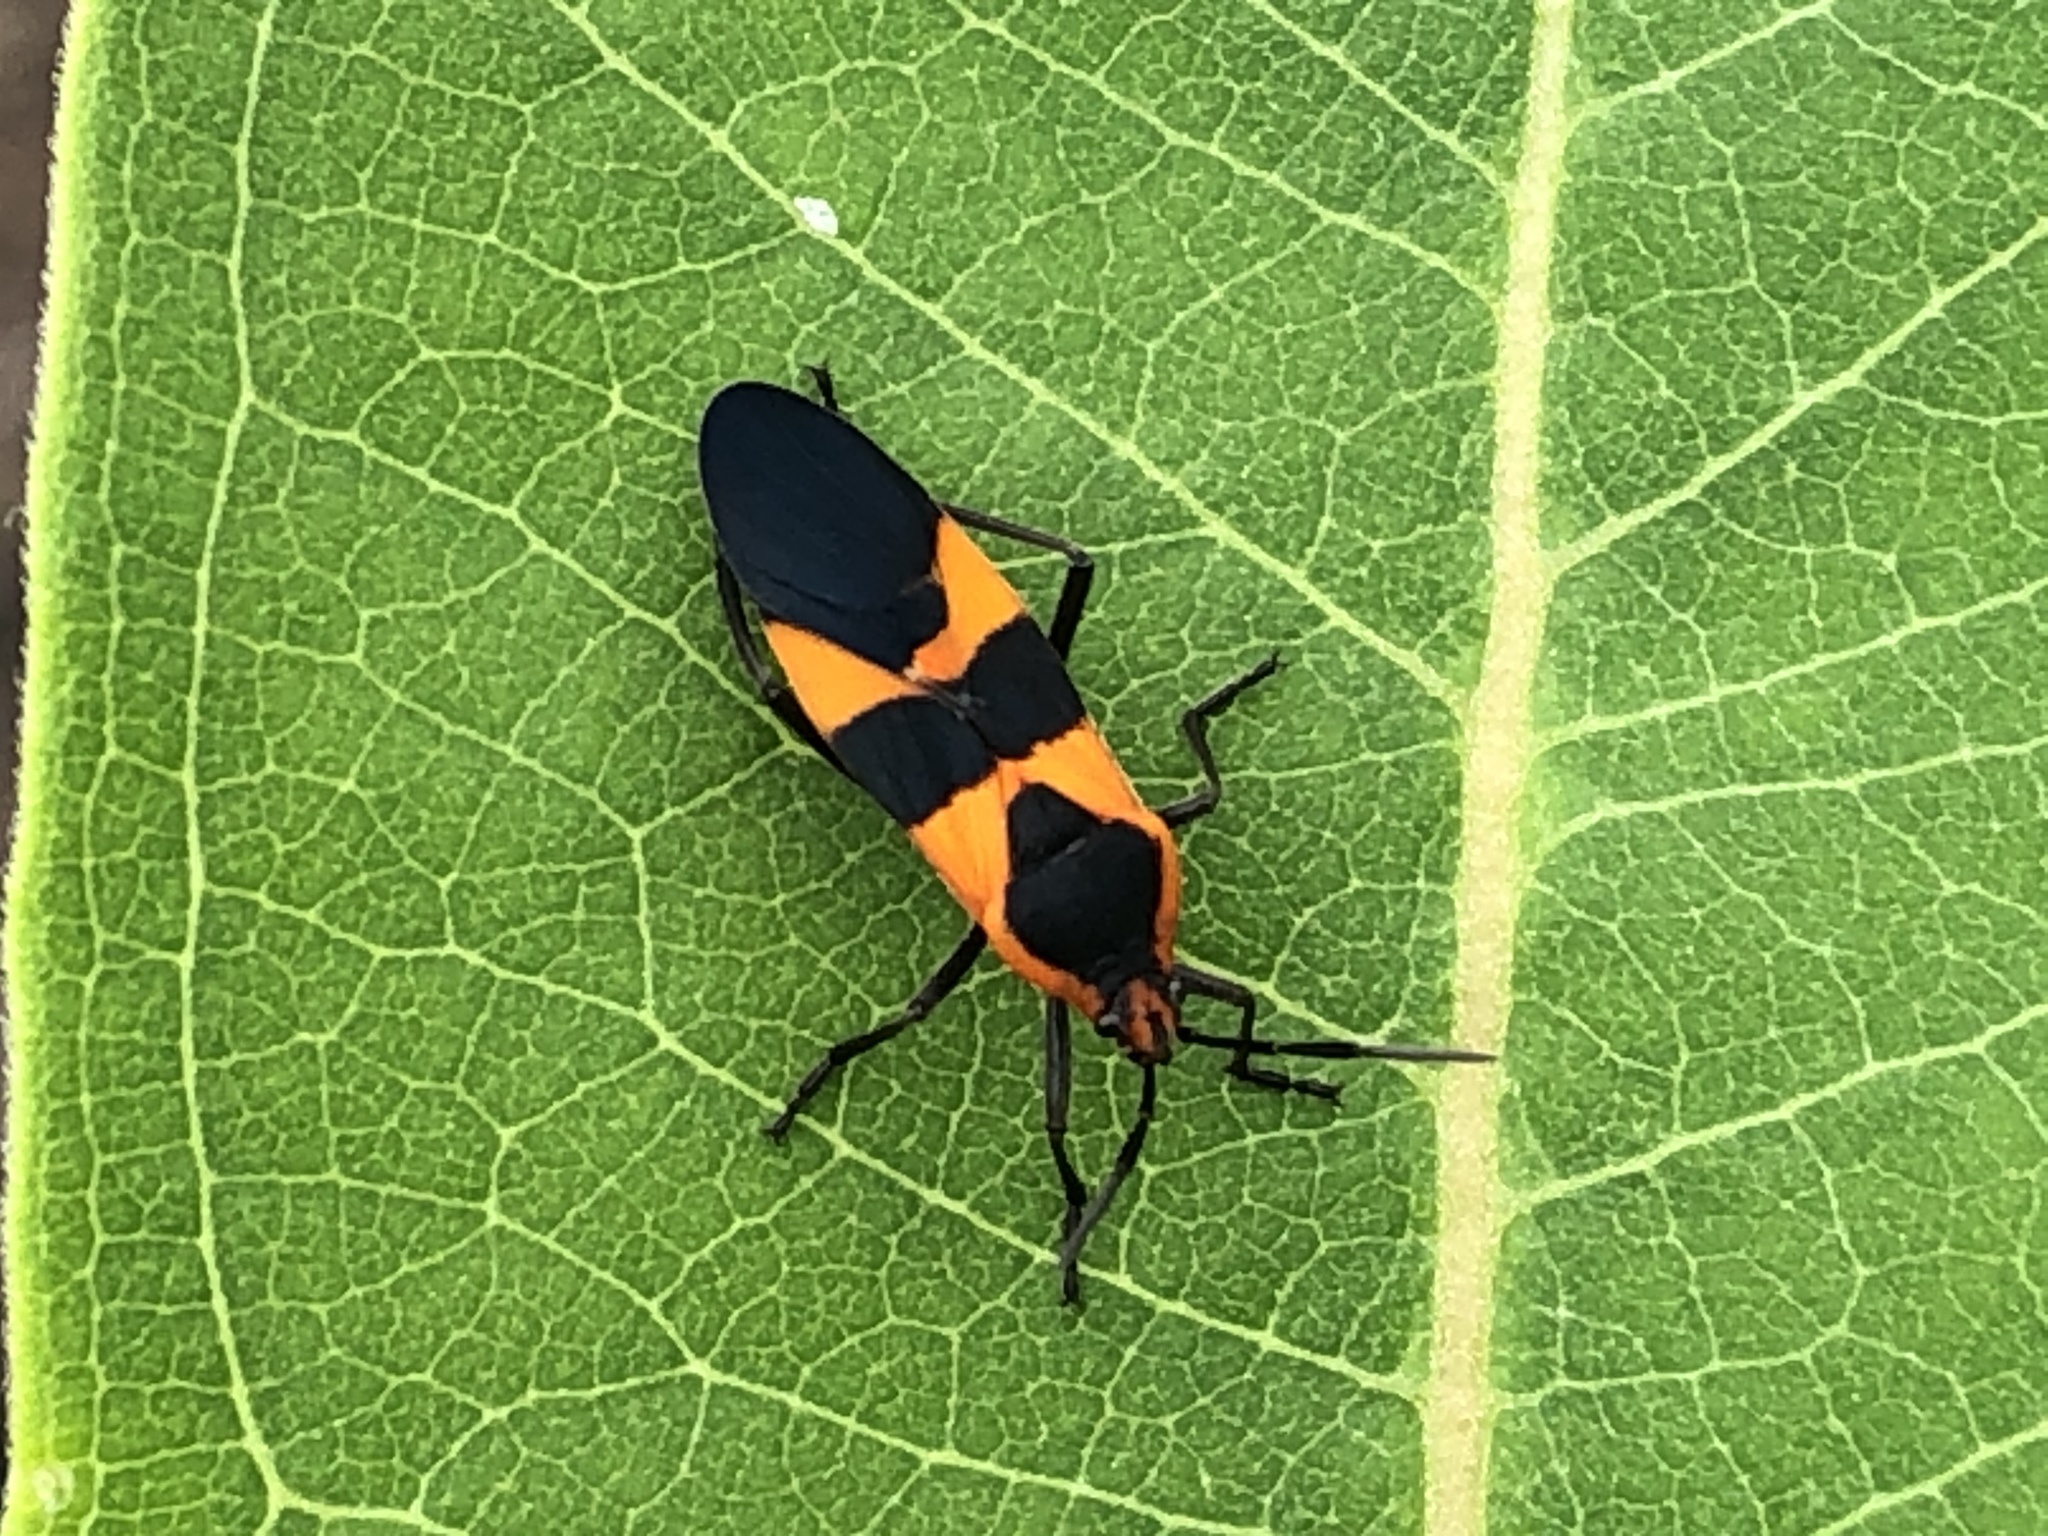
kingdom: Animalia
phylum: Arthropoda
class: Insecta
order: Hemiptera
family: Lygaeidae
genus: Oncopeltus
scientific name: Oncopeltus fasciatus
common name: Large milkweed bug
